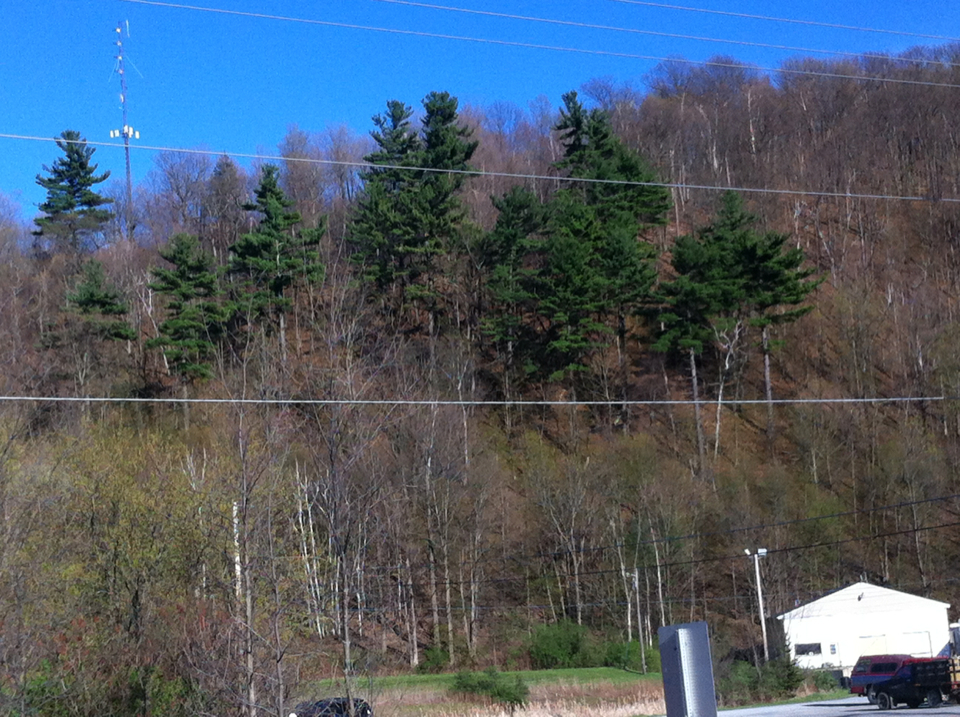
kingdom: Plantae
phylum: Tracheophyta
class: Pinopsida
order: Pinales
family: Pinaceae
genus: Pinus
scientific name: Pinus strobus
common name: Weymouth pine
